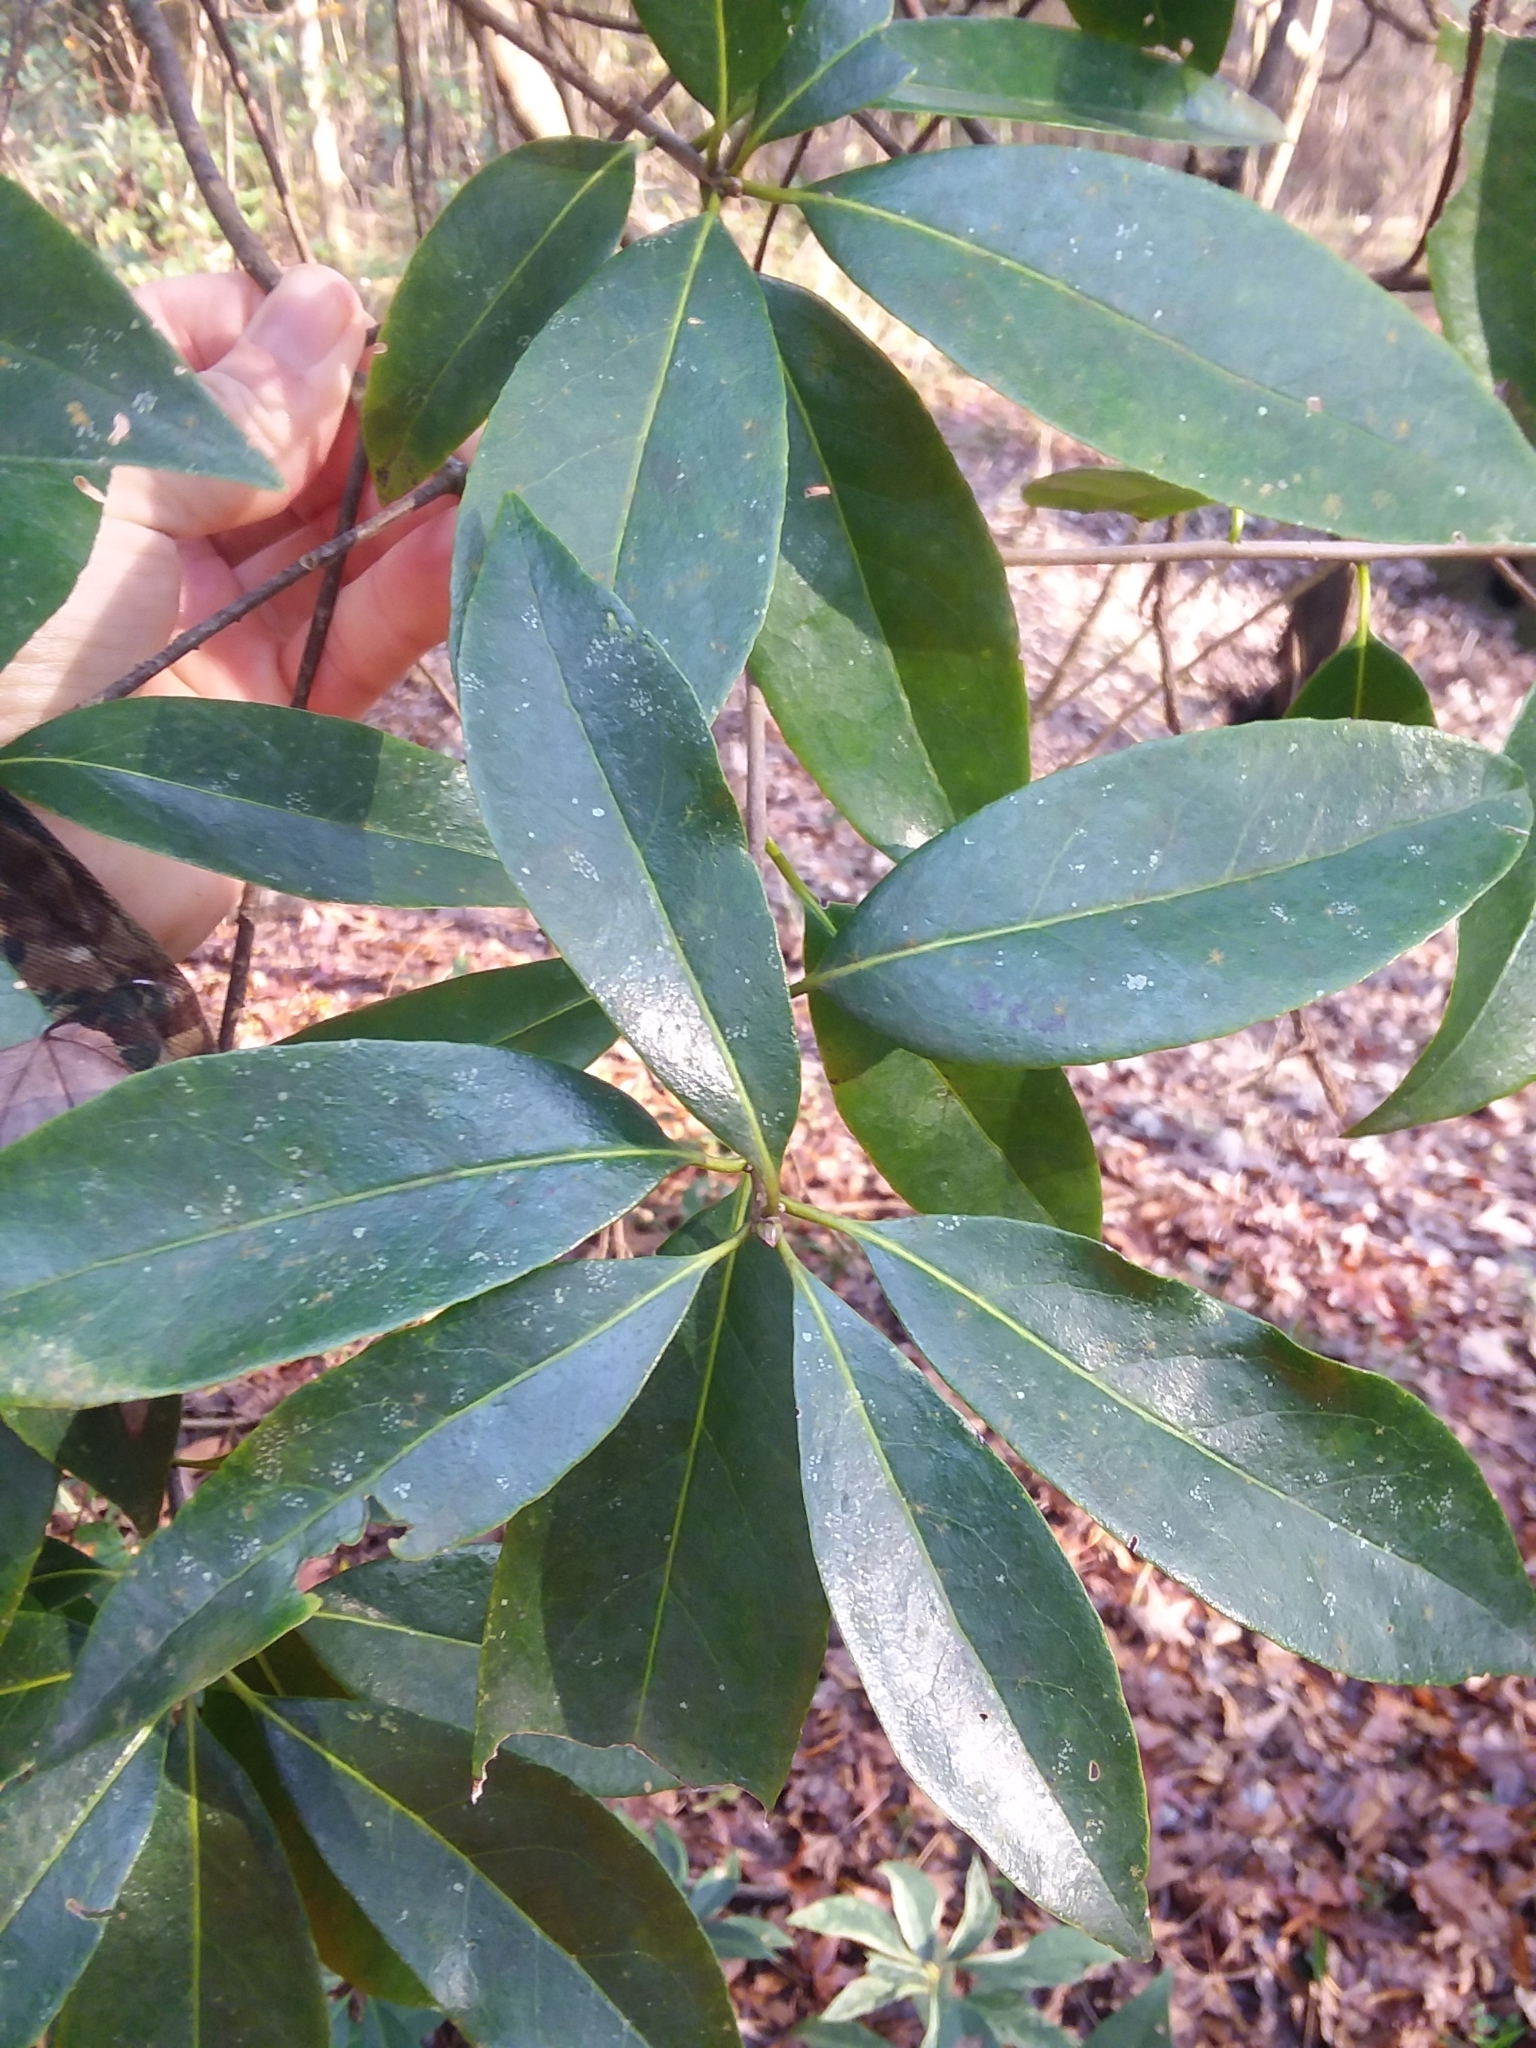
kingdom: Plantae
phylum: Tracheophyta
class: Magnoliopsida
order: Ericales
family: Symplocaceae
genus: Symplocos
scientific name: Symplocos tinctoria
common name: Horse-sugar
